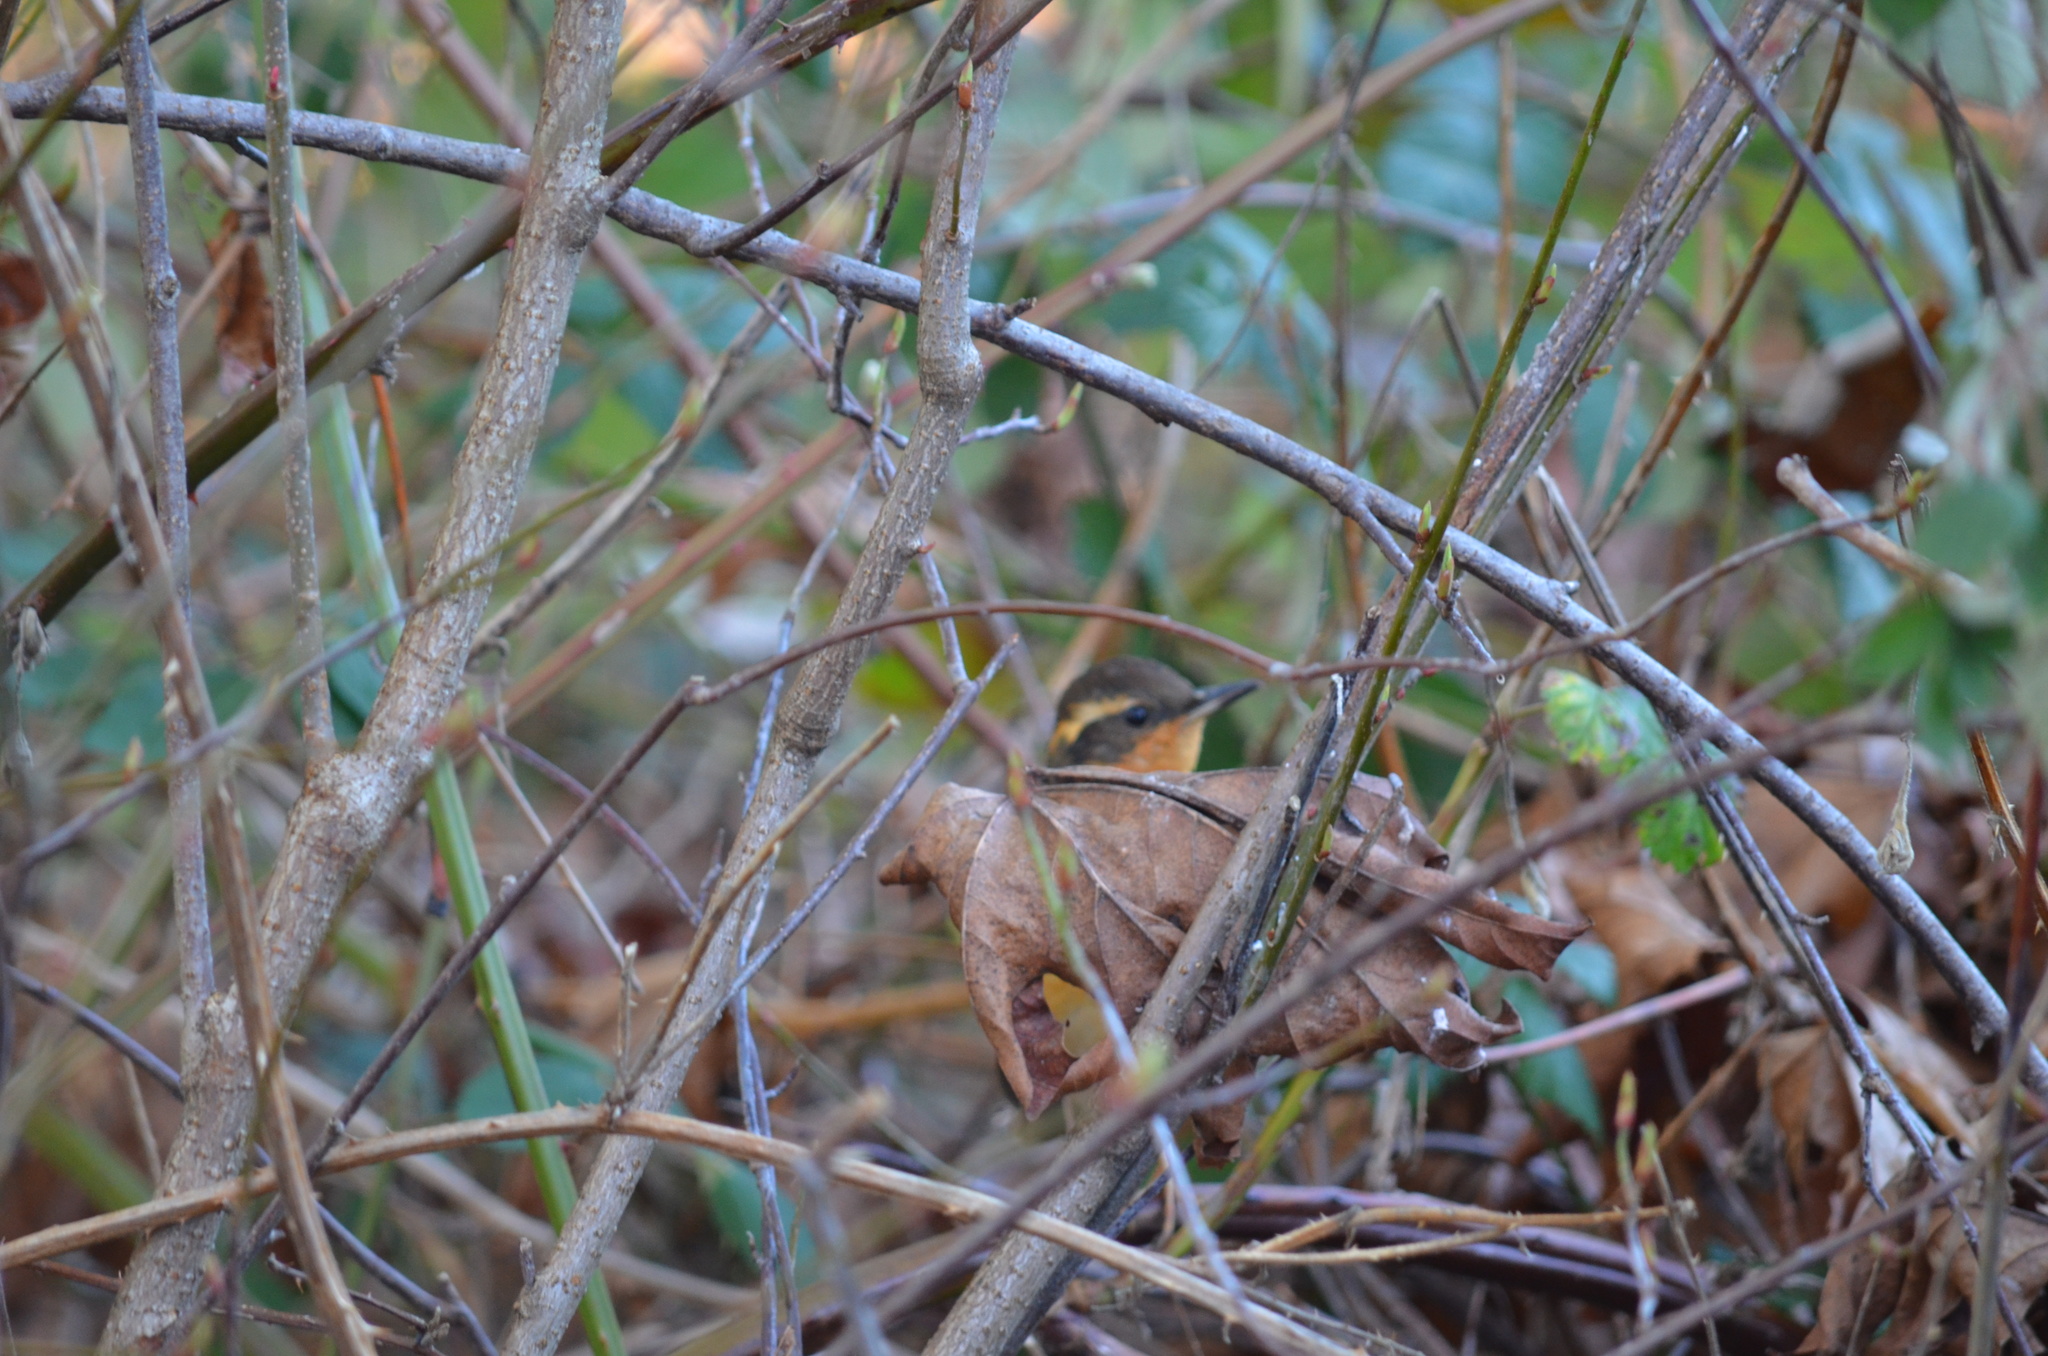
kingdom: Animalia
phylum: Chordata
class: Aves
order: Passeriformes
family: Turdidae
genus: Ixoreus
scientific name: Ixoreus naevius
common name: Varied thrush
